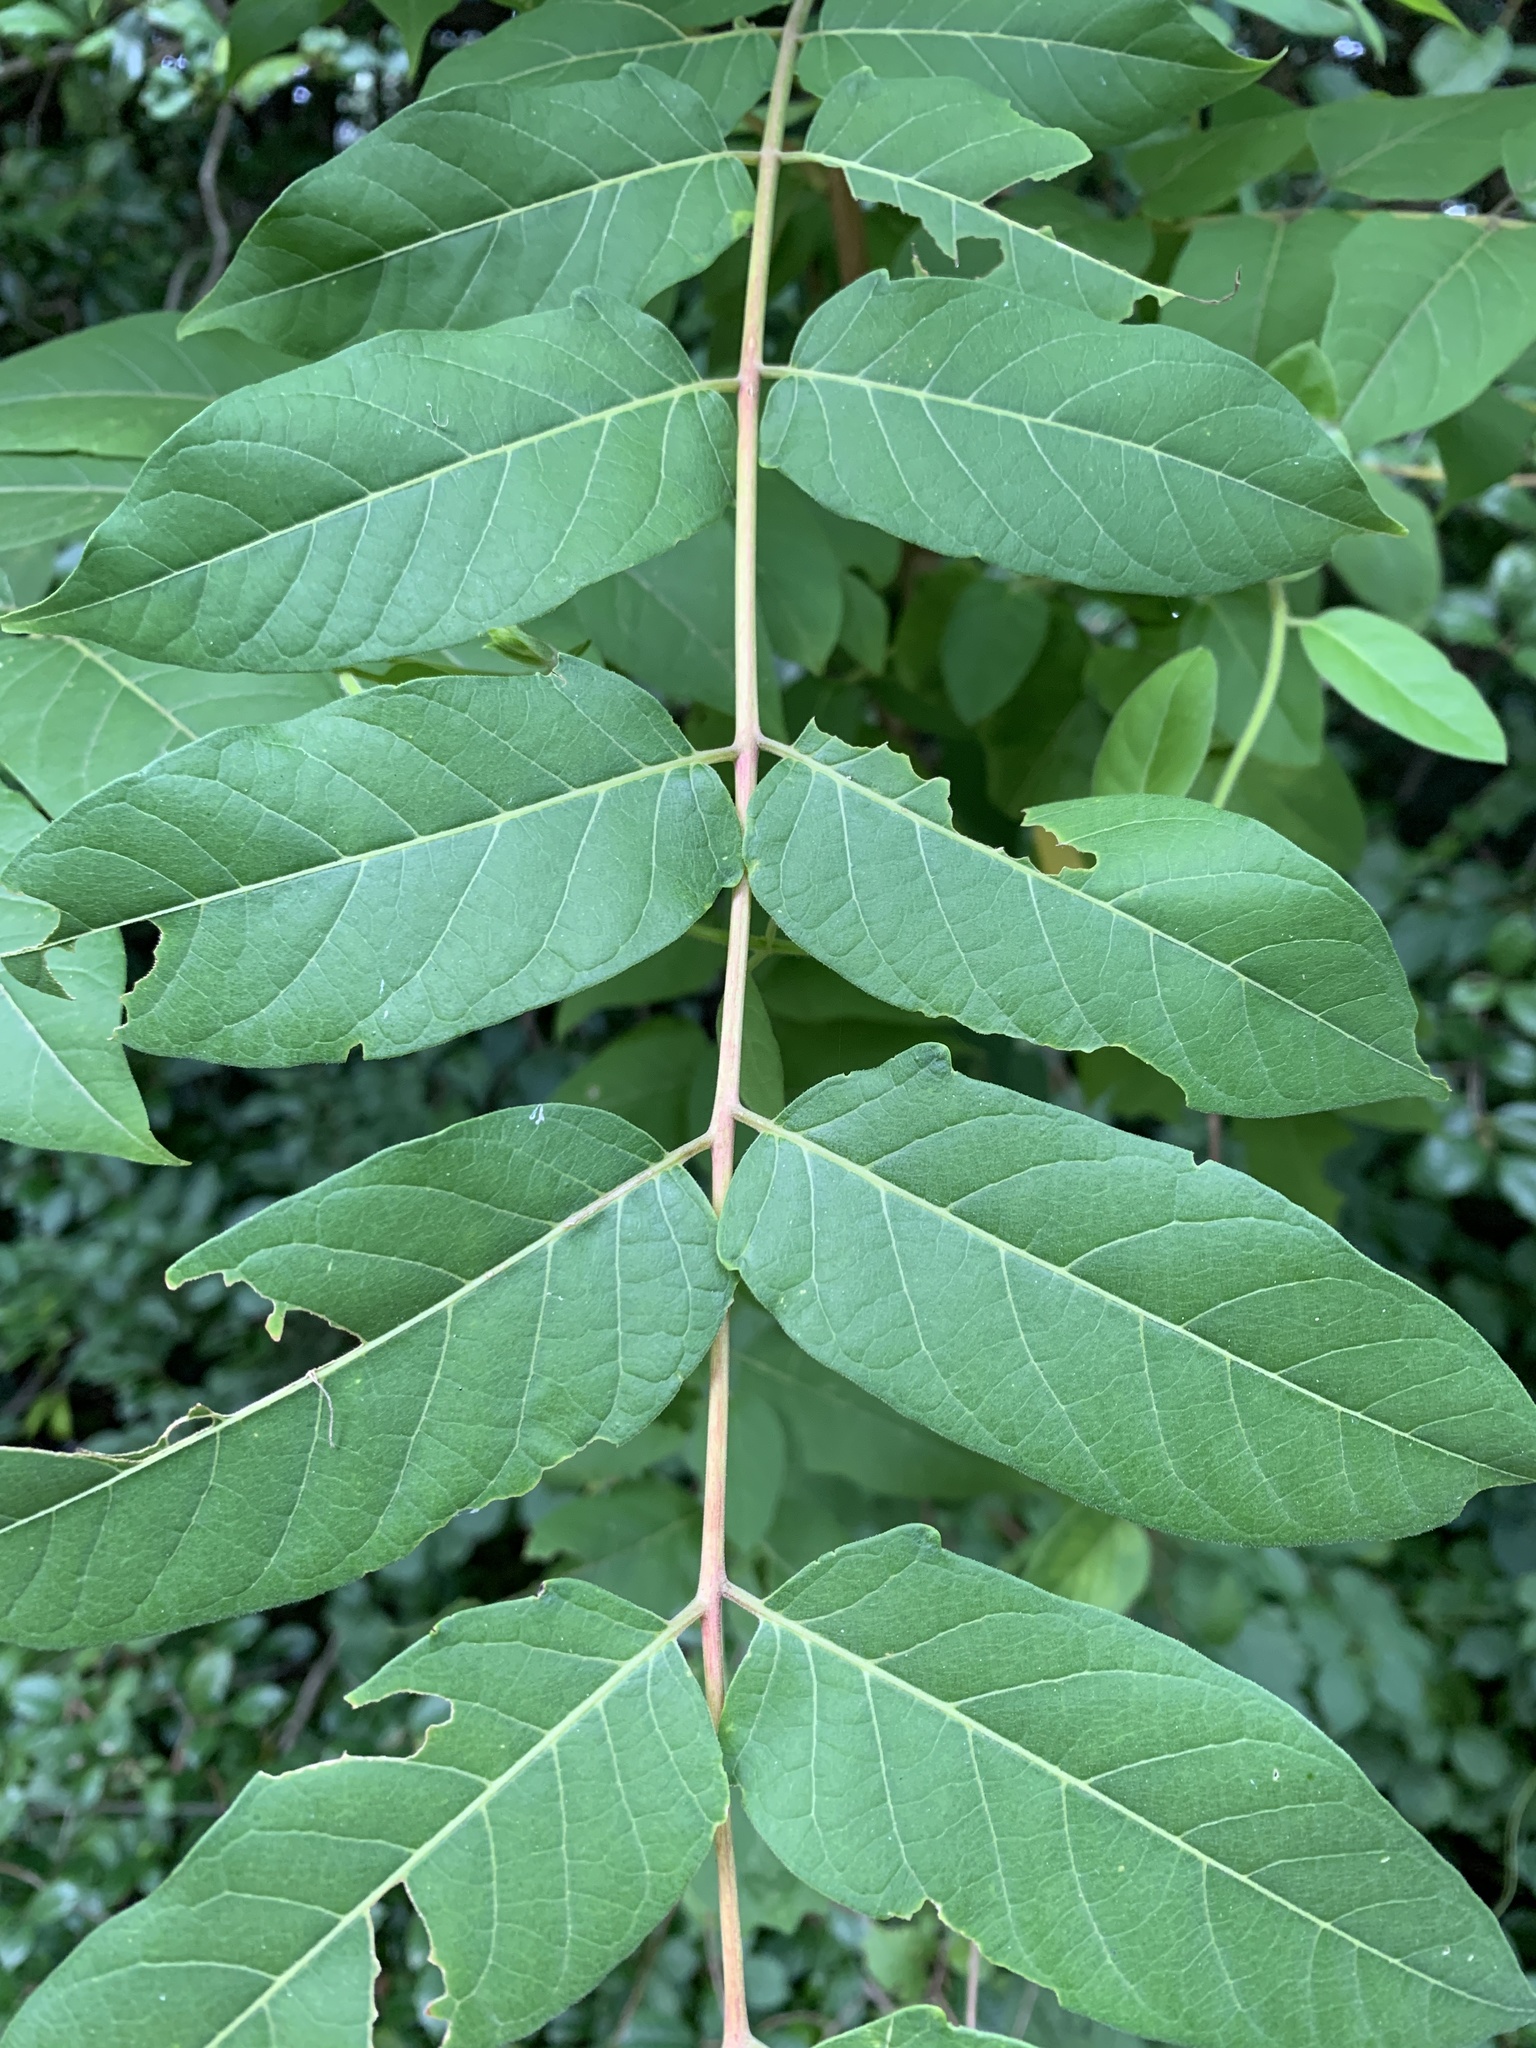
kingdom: Plantae
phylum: Tracheophyta
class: Magnoliopsida
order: Sapindales
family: Simaroubaceae
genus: Ailanthus
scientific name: Ailanthus altissima
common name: Tree-of-heaven
